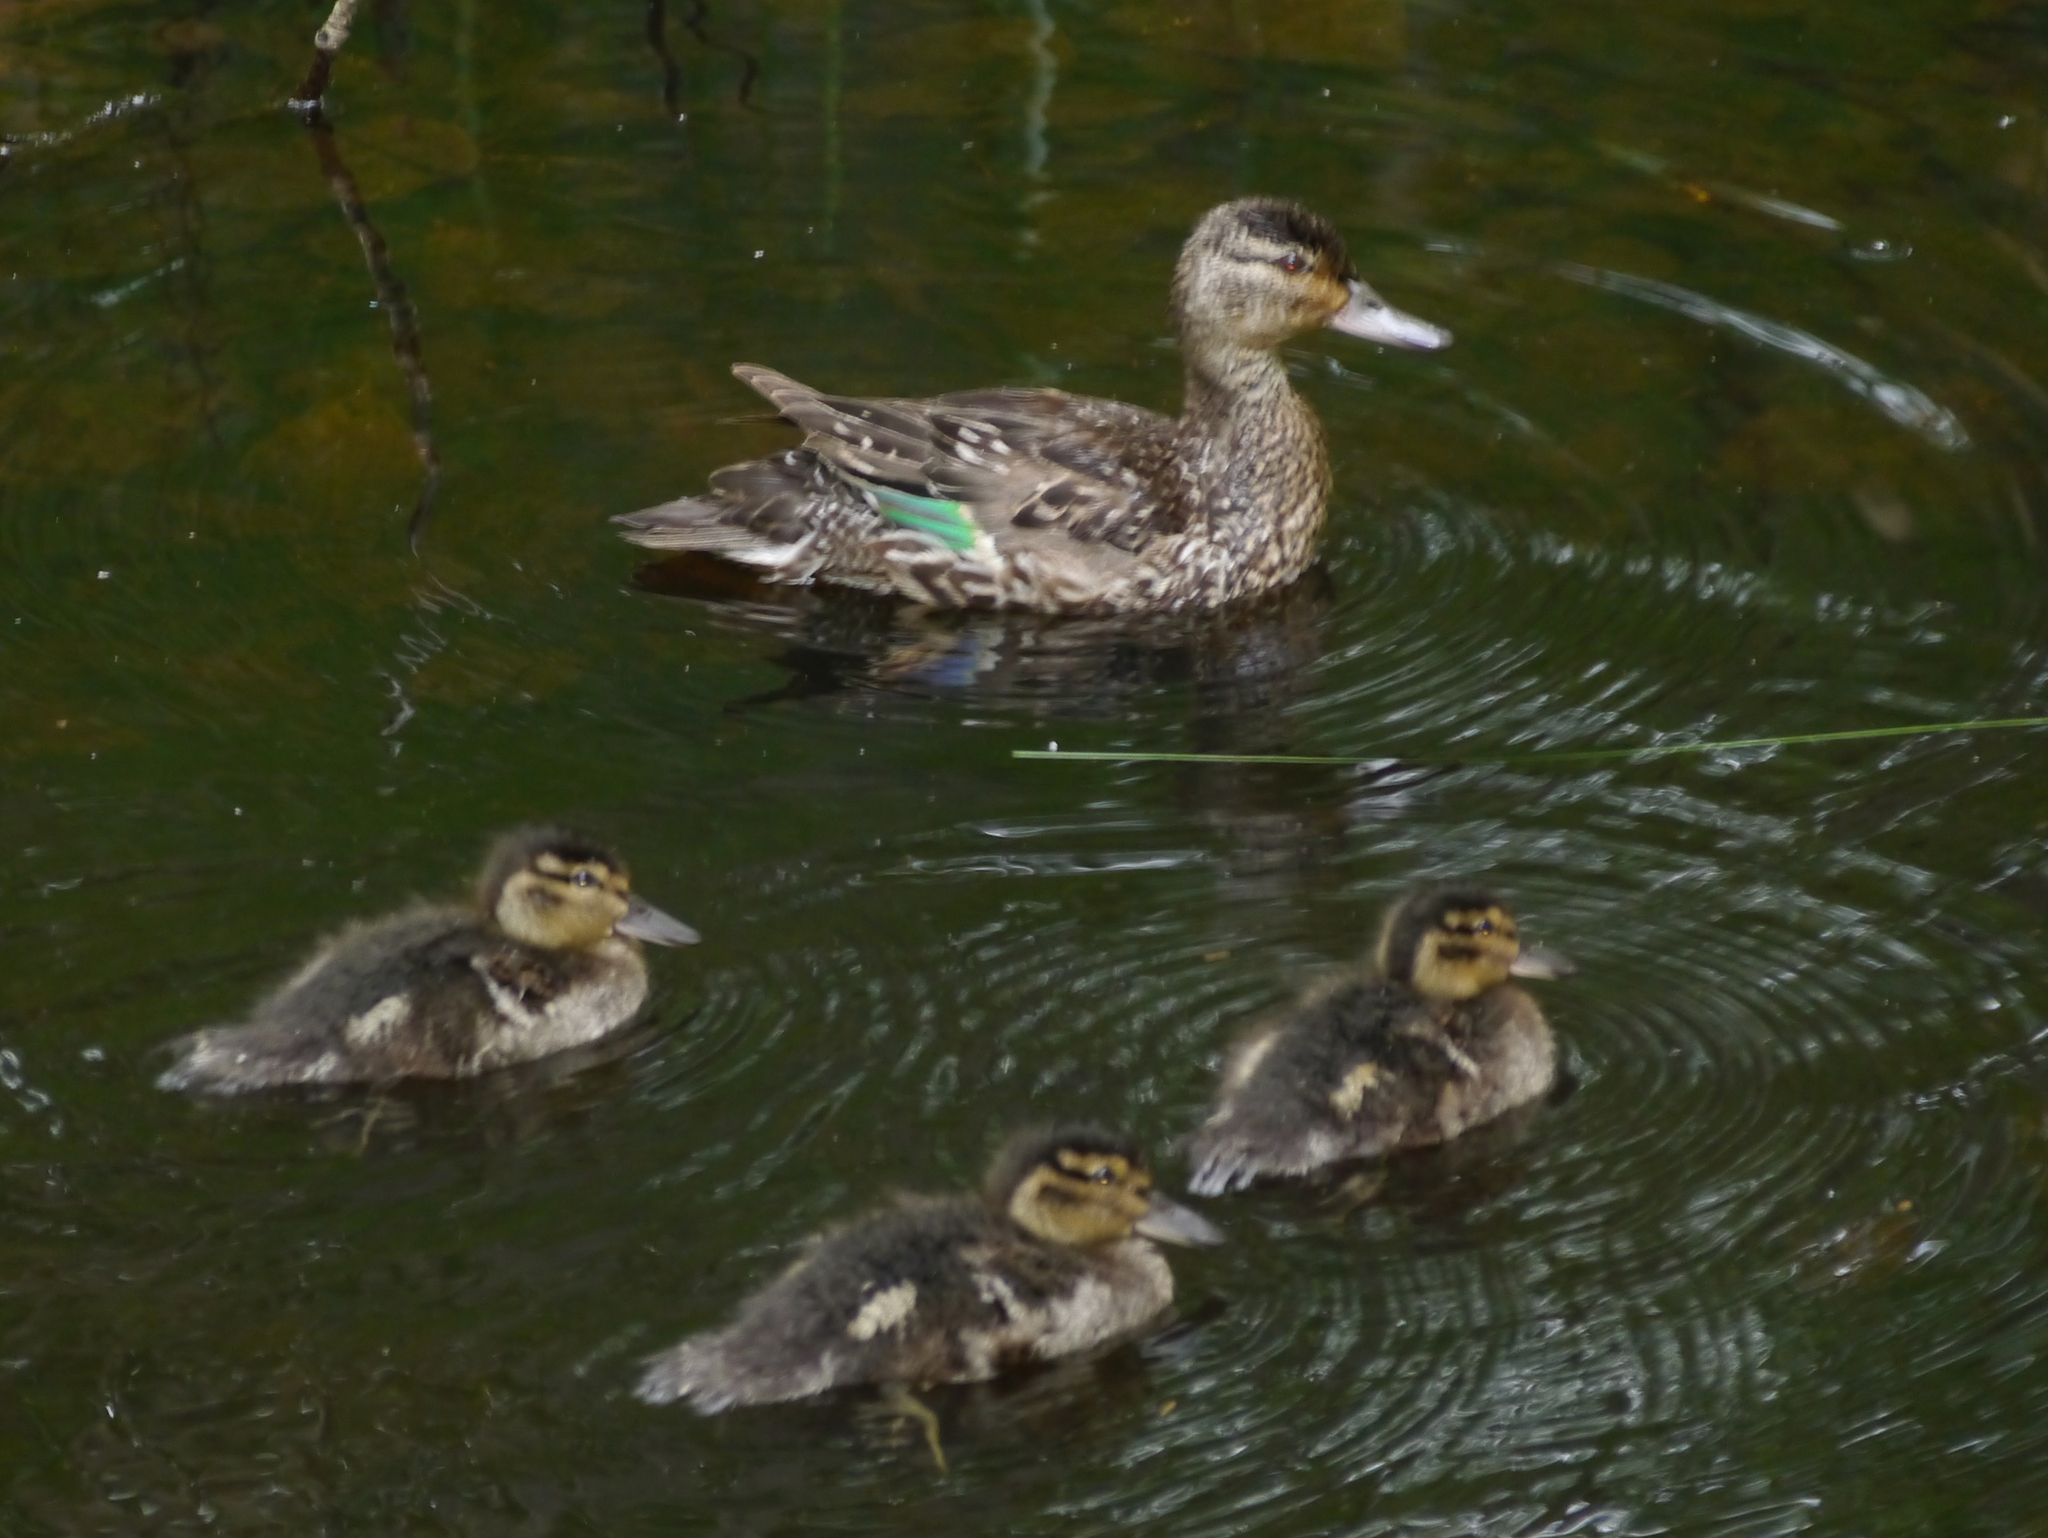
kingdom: Animalia
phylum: Chordata
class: Aves
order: Anseriformes
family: Anatidae
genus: Anas
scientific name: Anas crecca
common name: Eurasian teal
